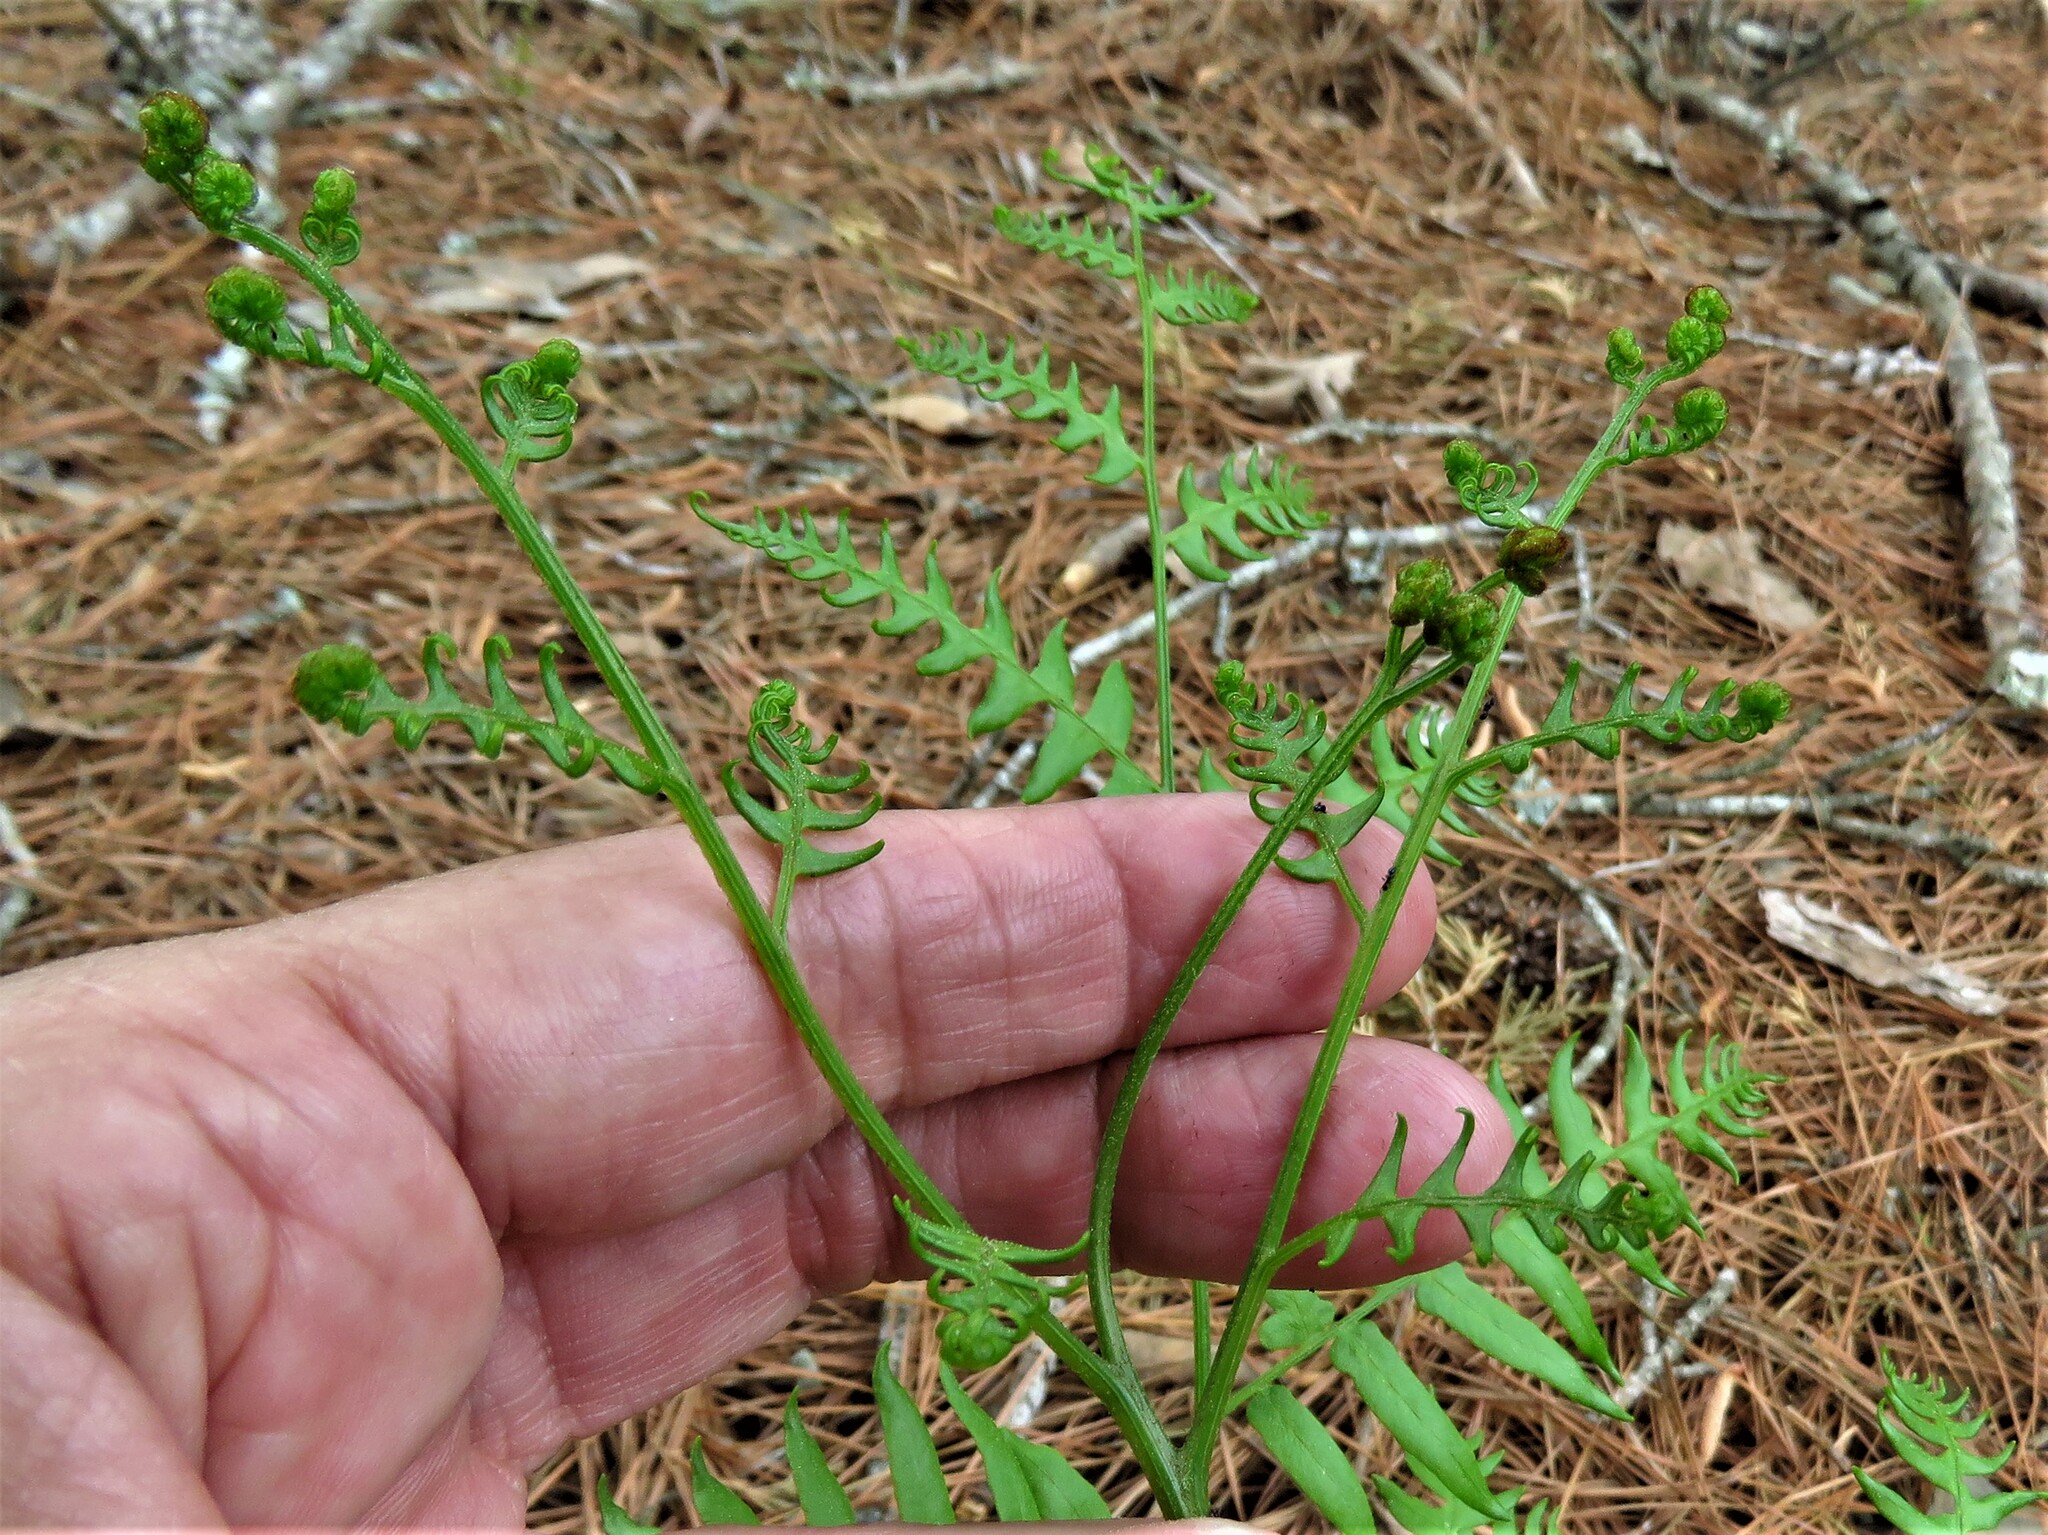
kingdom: Plantae
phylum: Tracheophyta
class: Polypodiopsida
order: Polypodiales
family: Dennstaedtiaceae
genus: Pteridium
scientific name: Pteridium aquilinum
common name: Bracken
